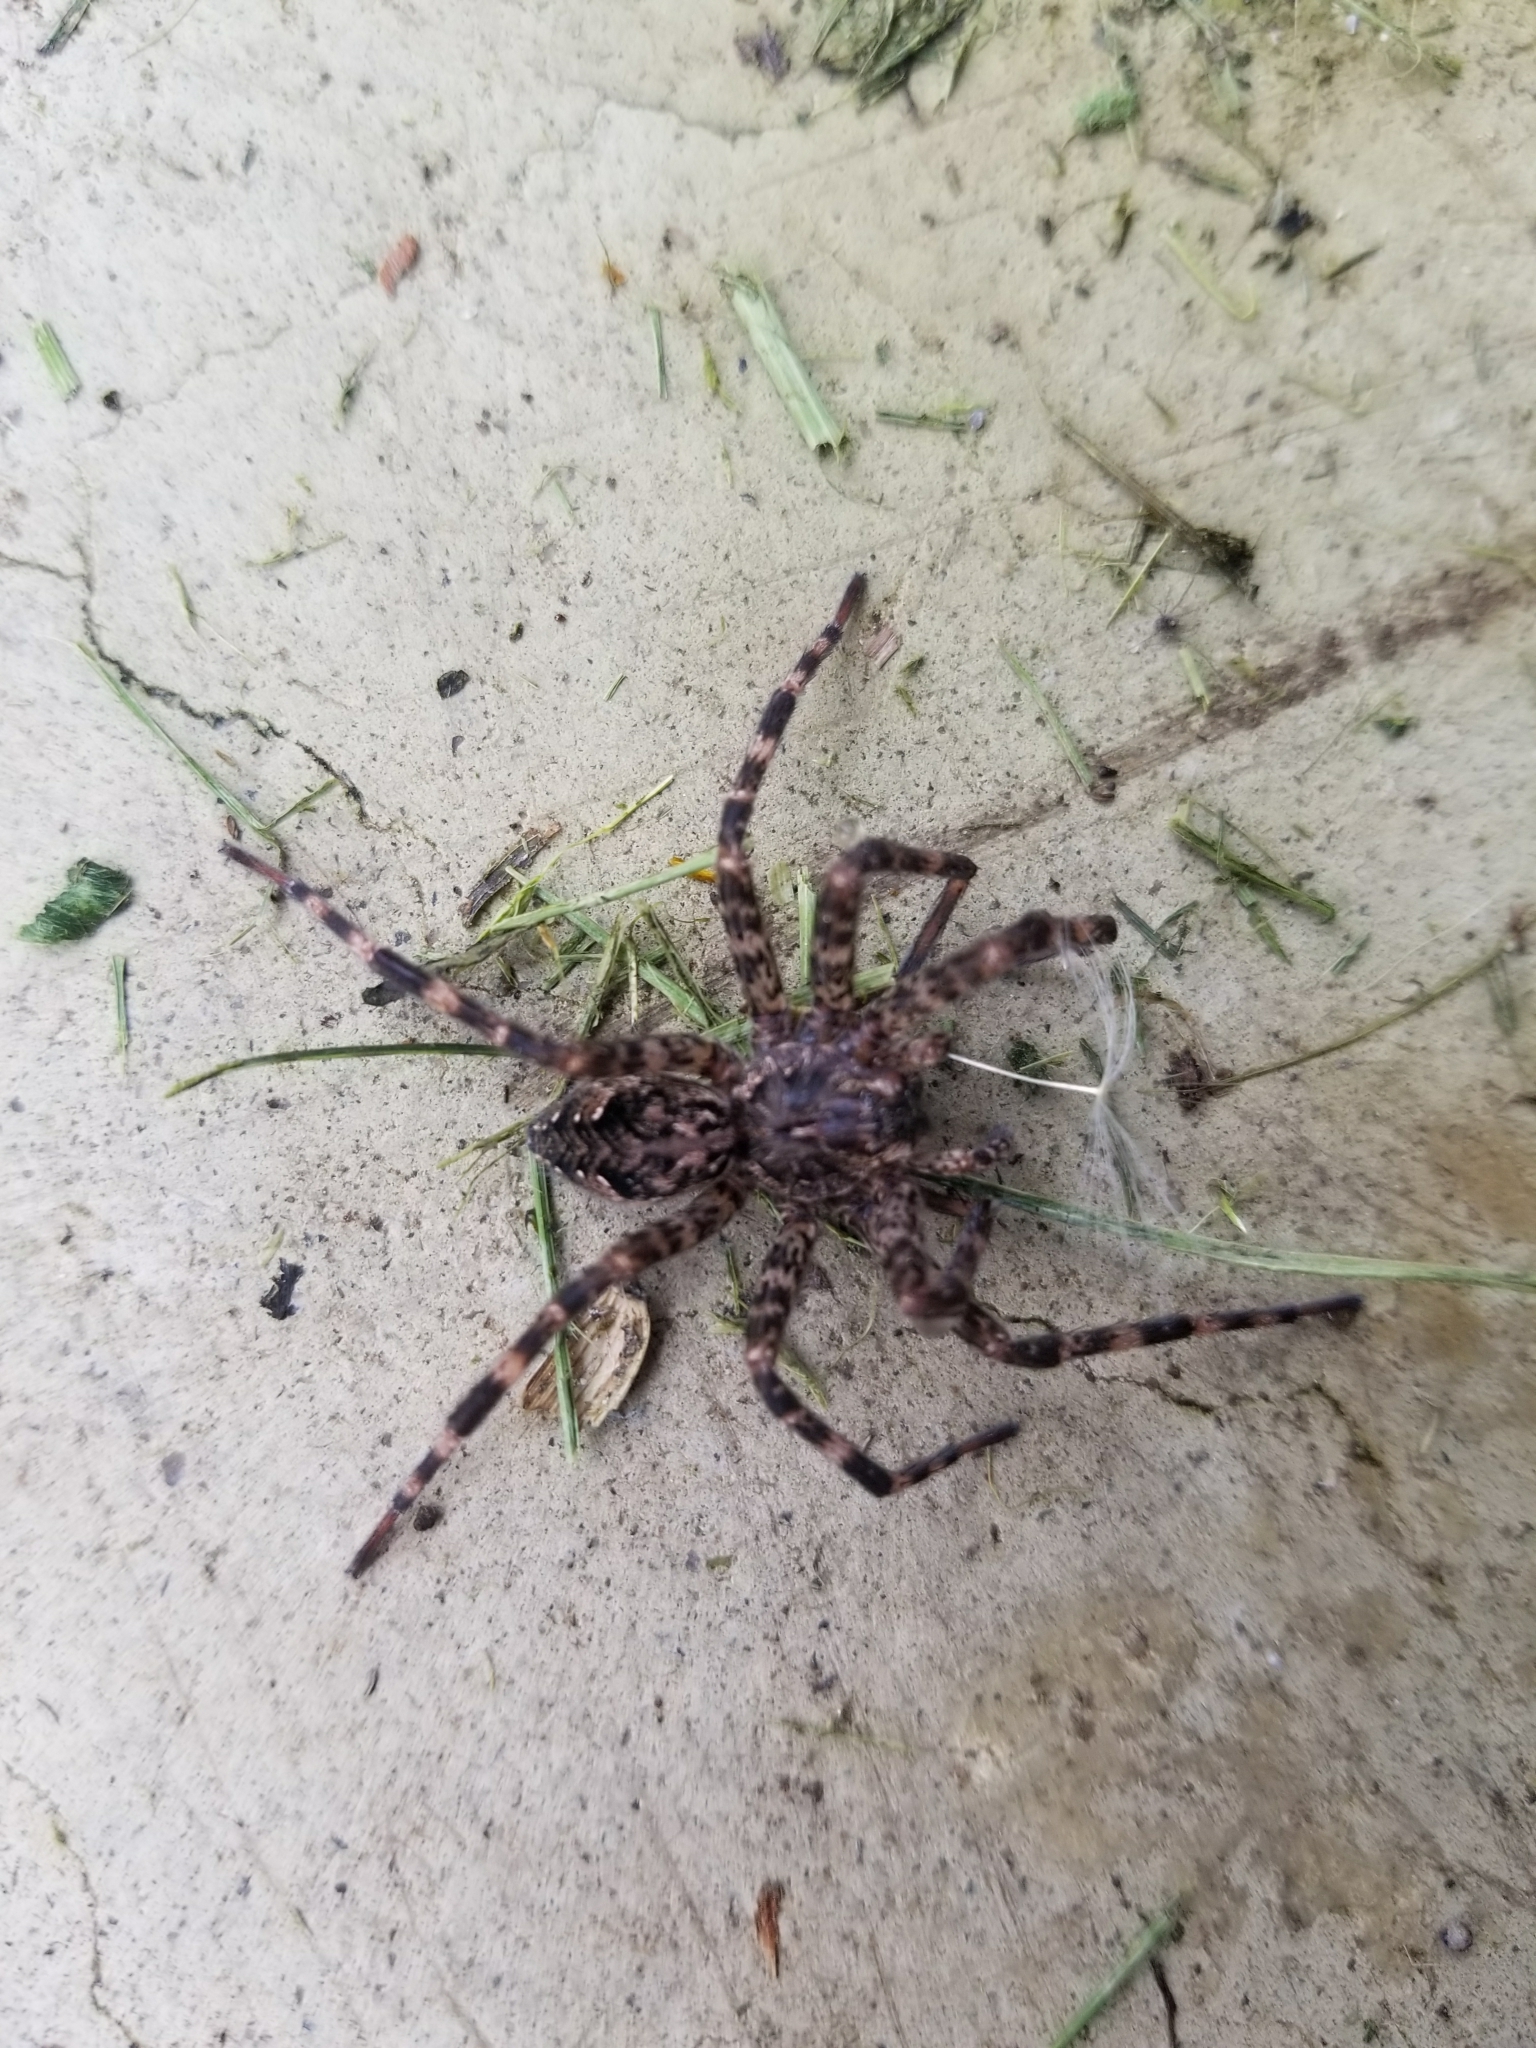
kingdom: Animalia
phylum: Arthropoda
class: Arachnida
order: Araneae
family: Pisauridae
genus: Dolomedes
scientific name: Dolomedes tenebrosus
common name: Dark fishing spider
